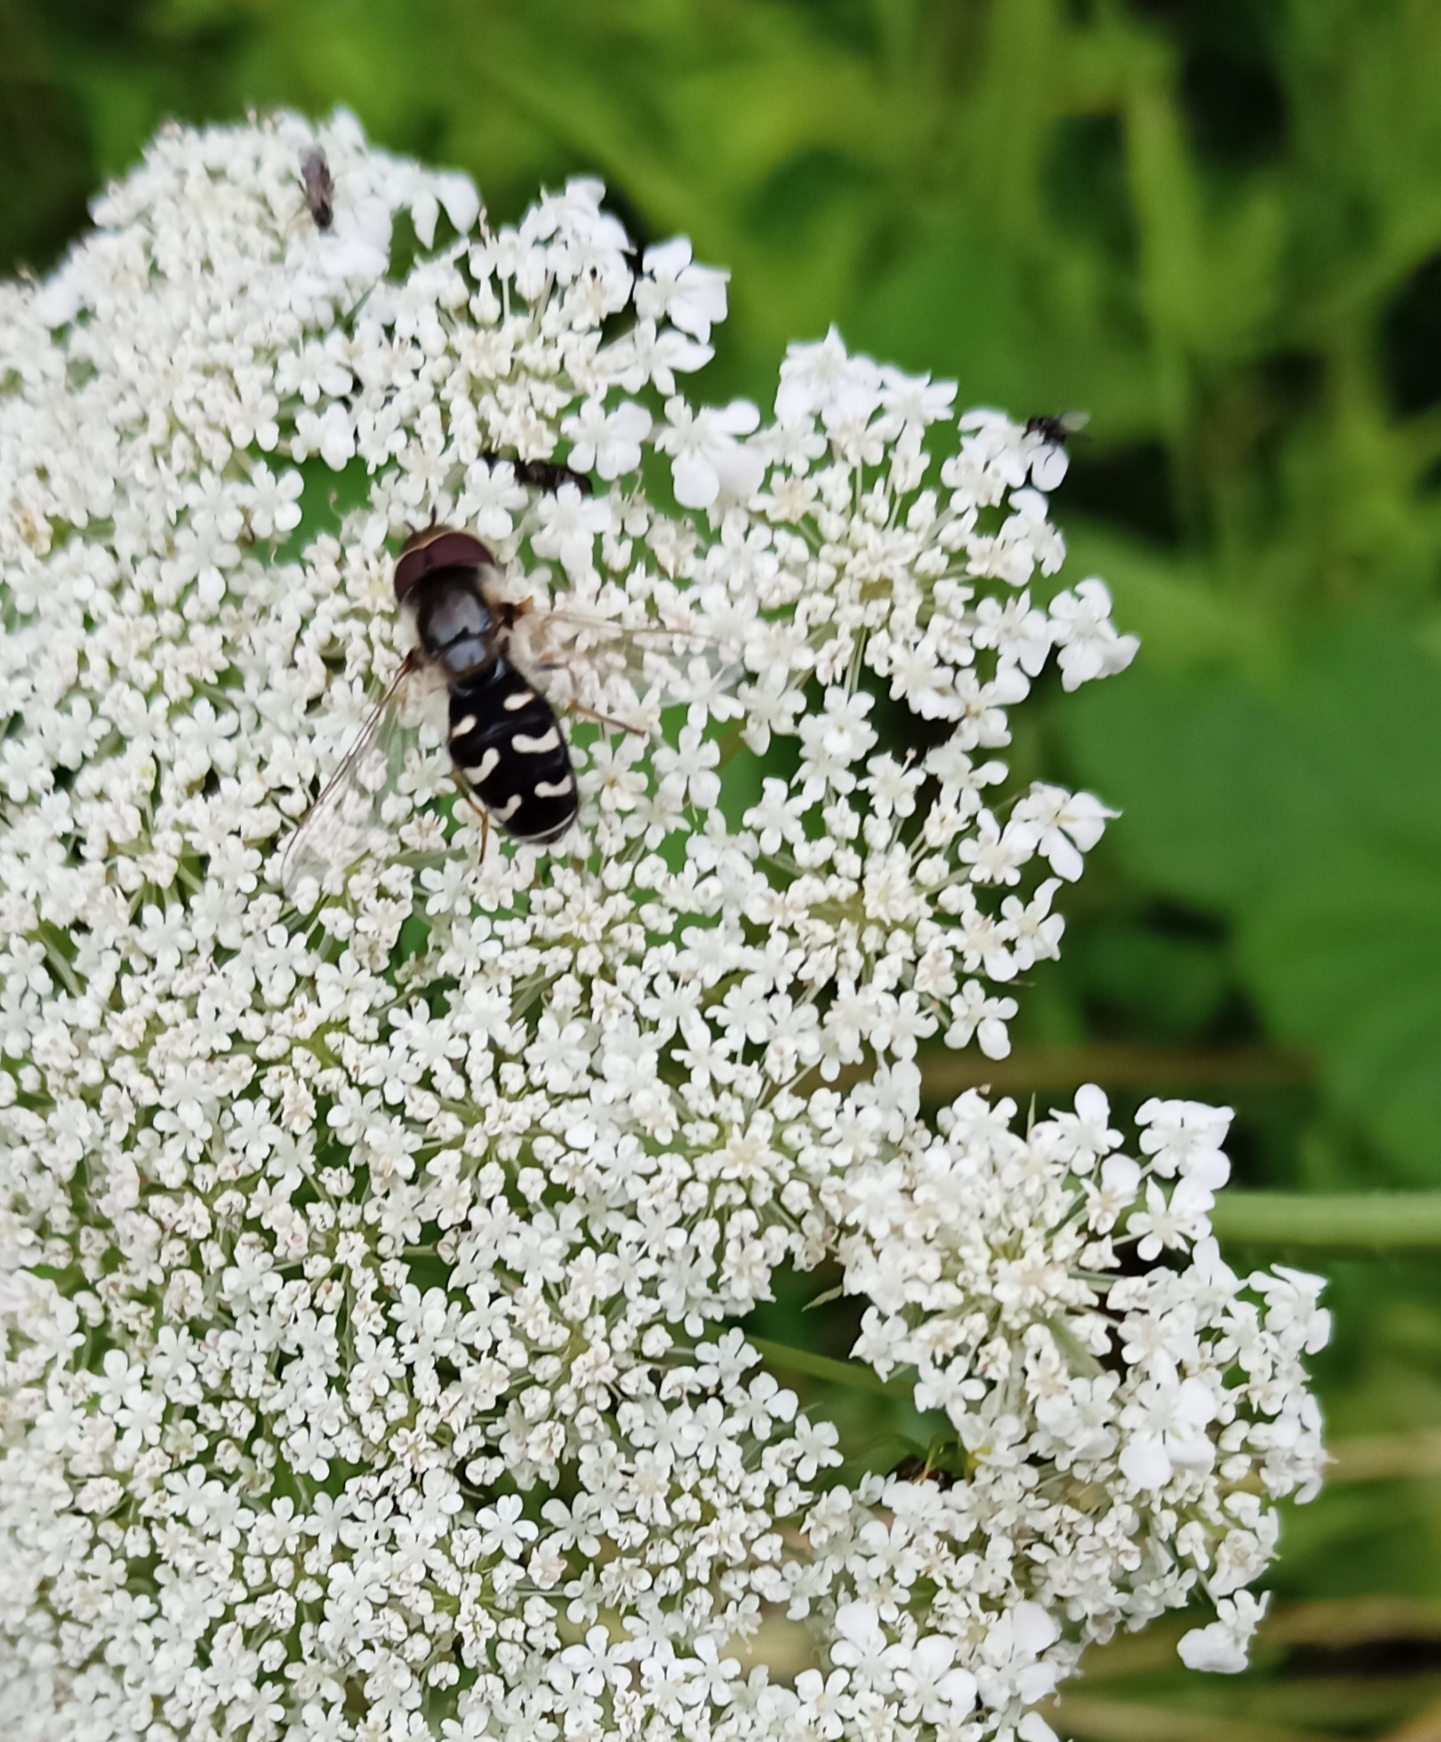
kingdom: Animalia
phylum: Arthropoda
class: Insecta
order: Diptera
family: Syrphidae
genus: Scaeva
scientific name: Scaeva pyrastri
